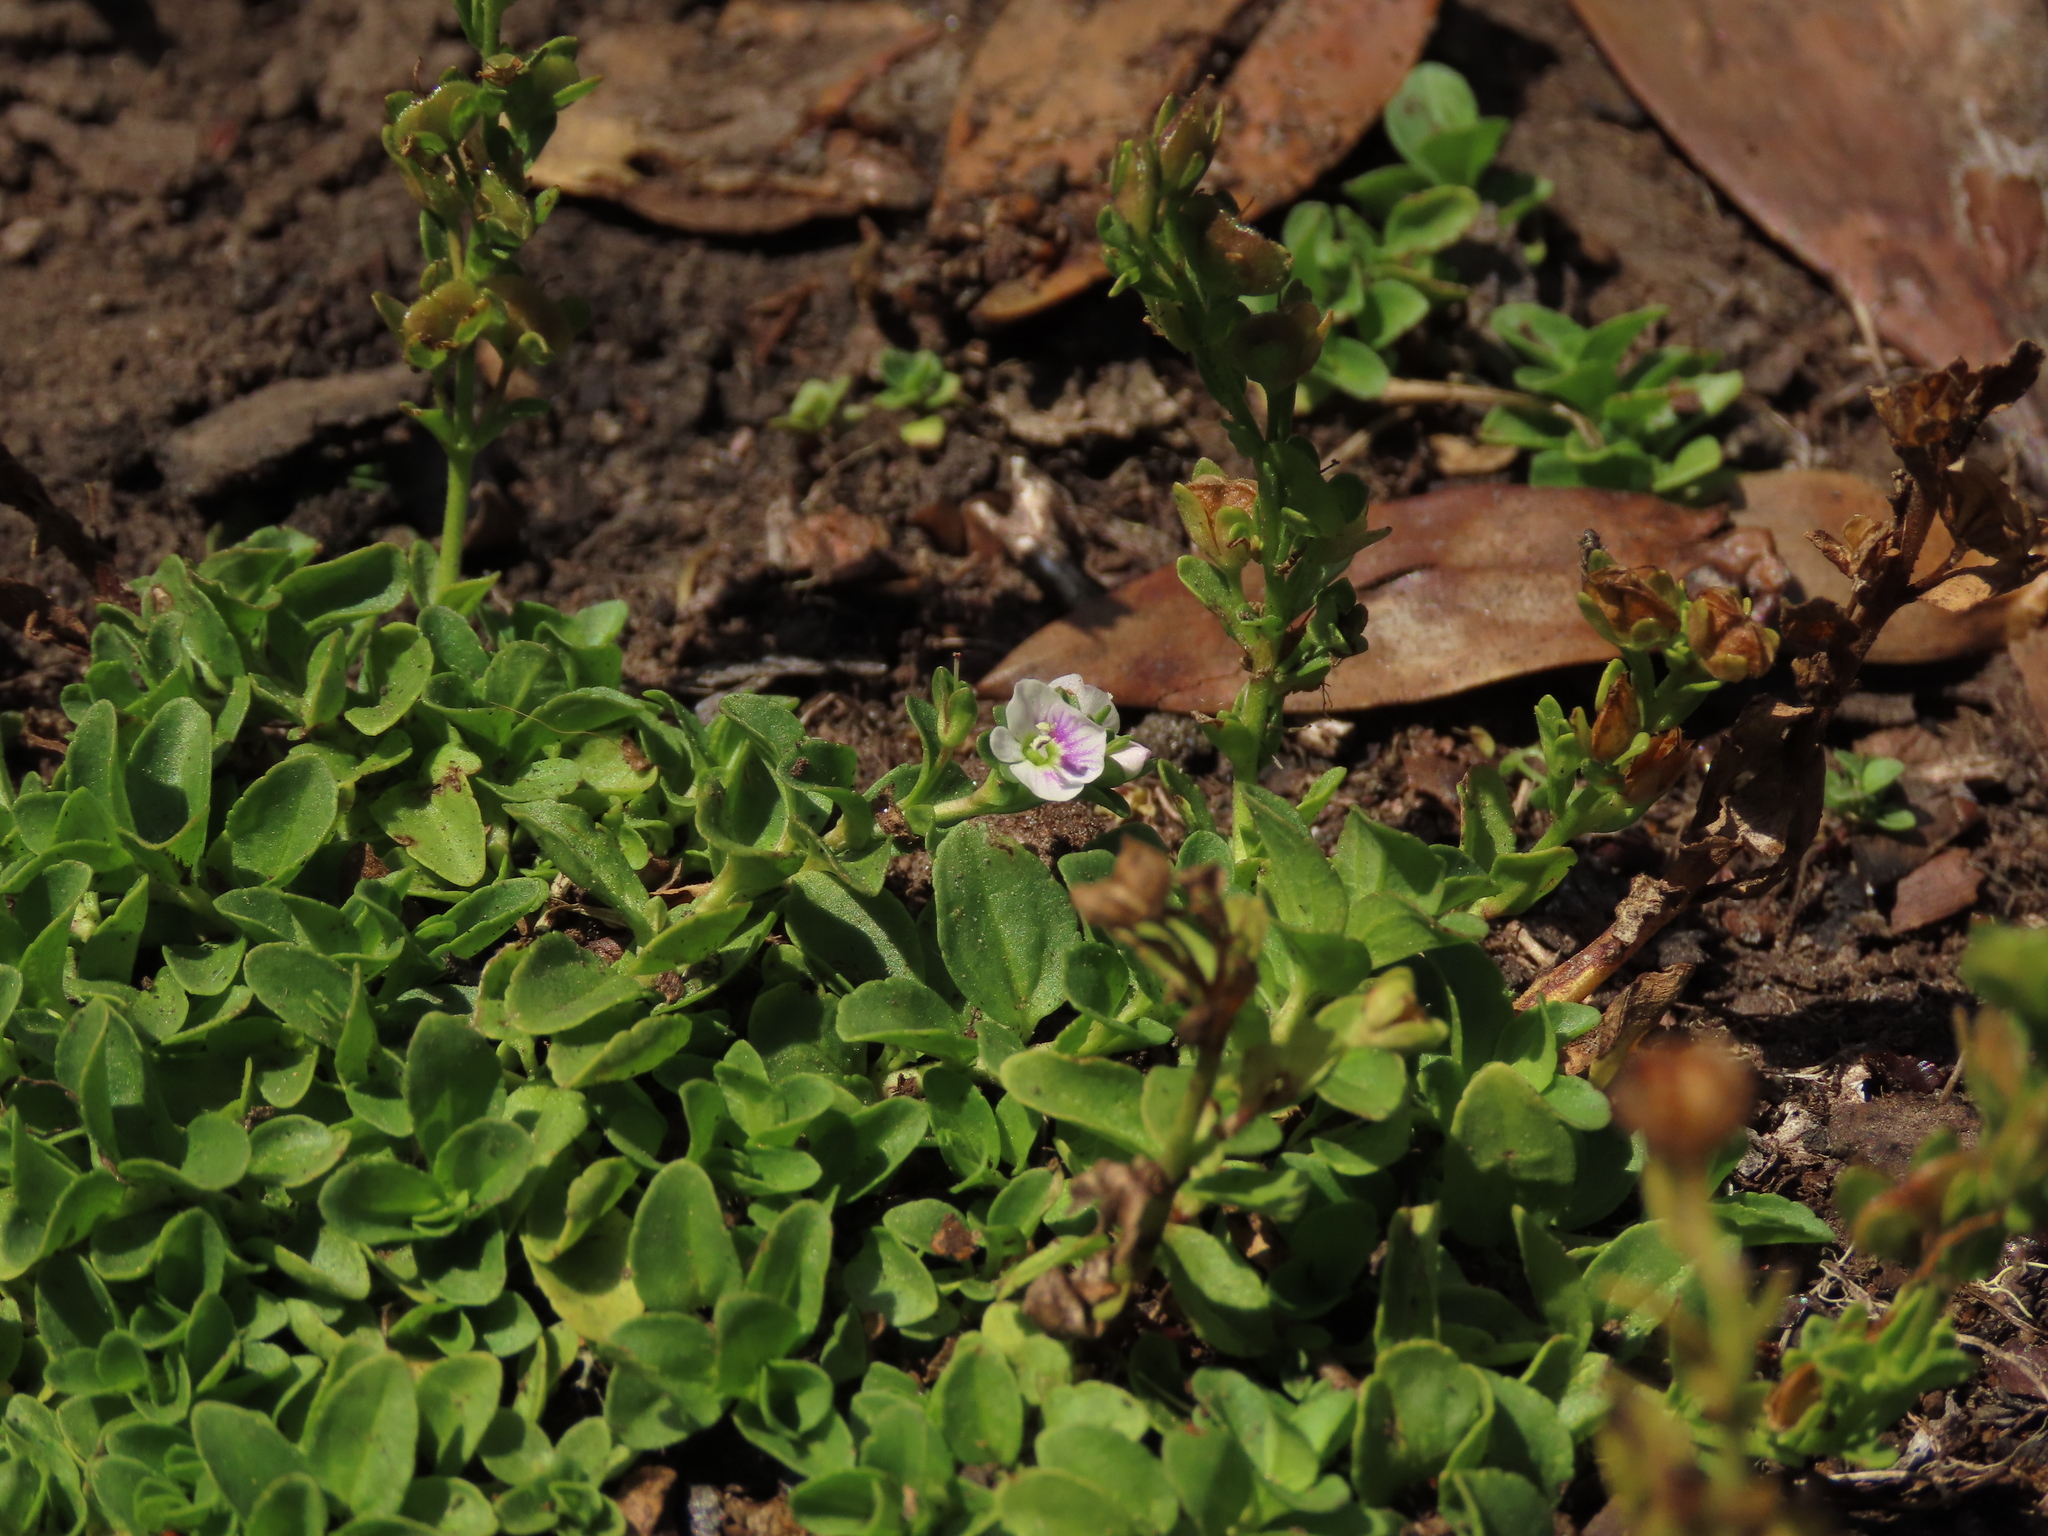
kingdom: Plantae
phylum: Tracheophyta
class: Magnoliopsida
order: Lamiales
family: Plantaginaceae
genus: Veronica
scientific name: Veronica serpyllifolia
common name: Thyme-leaved speedwell
